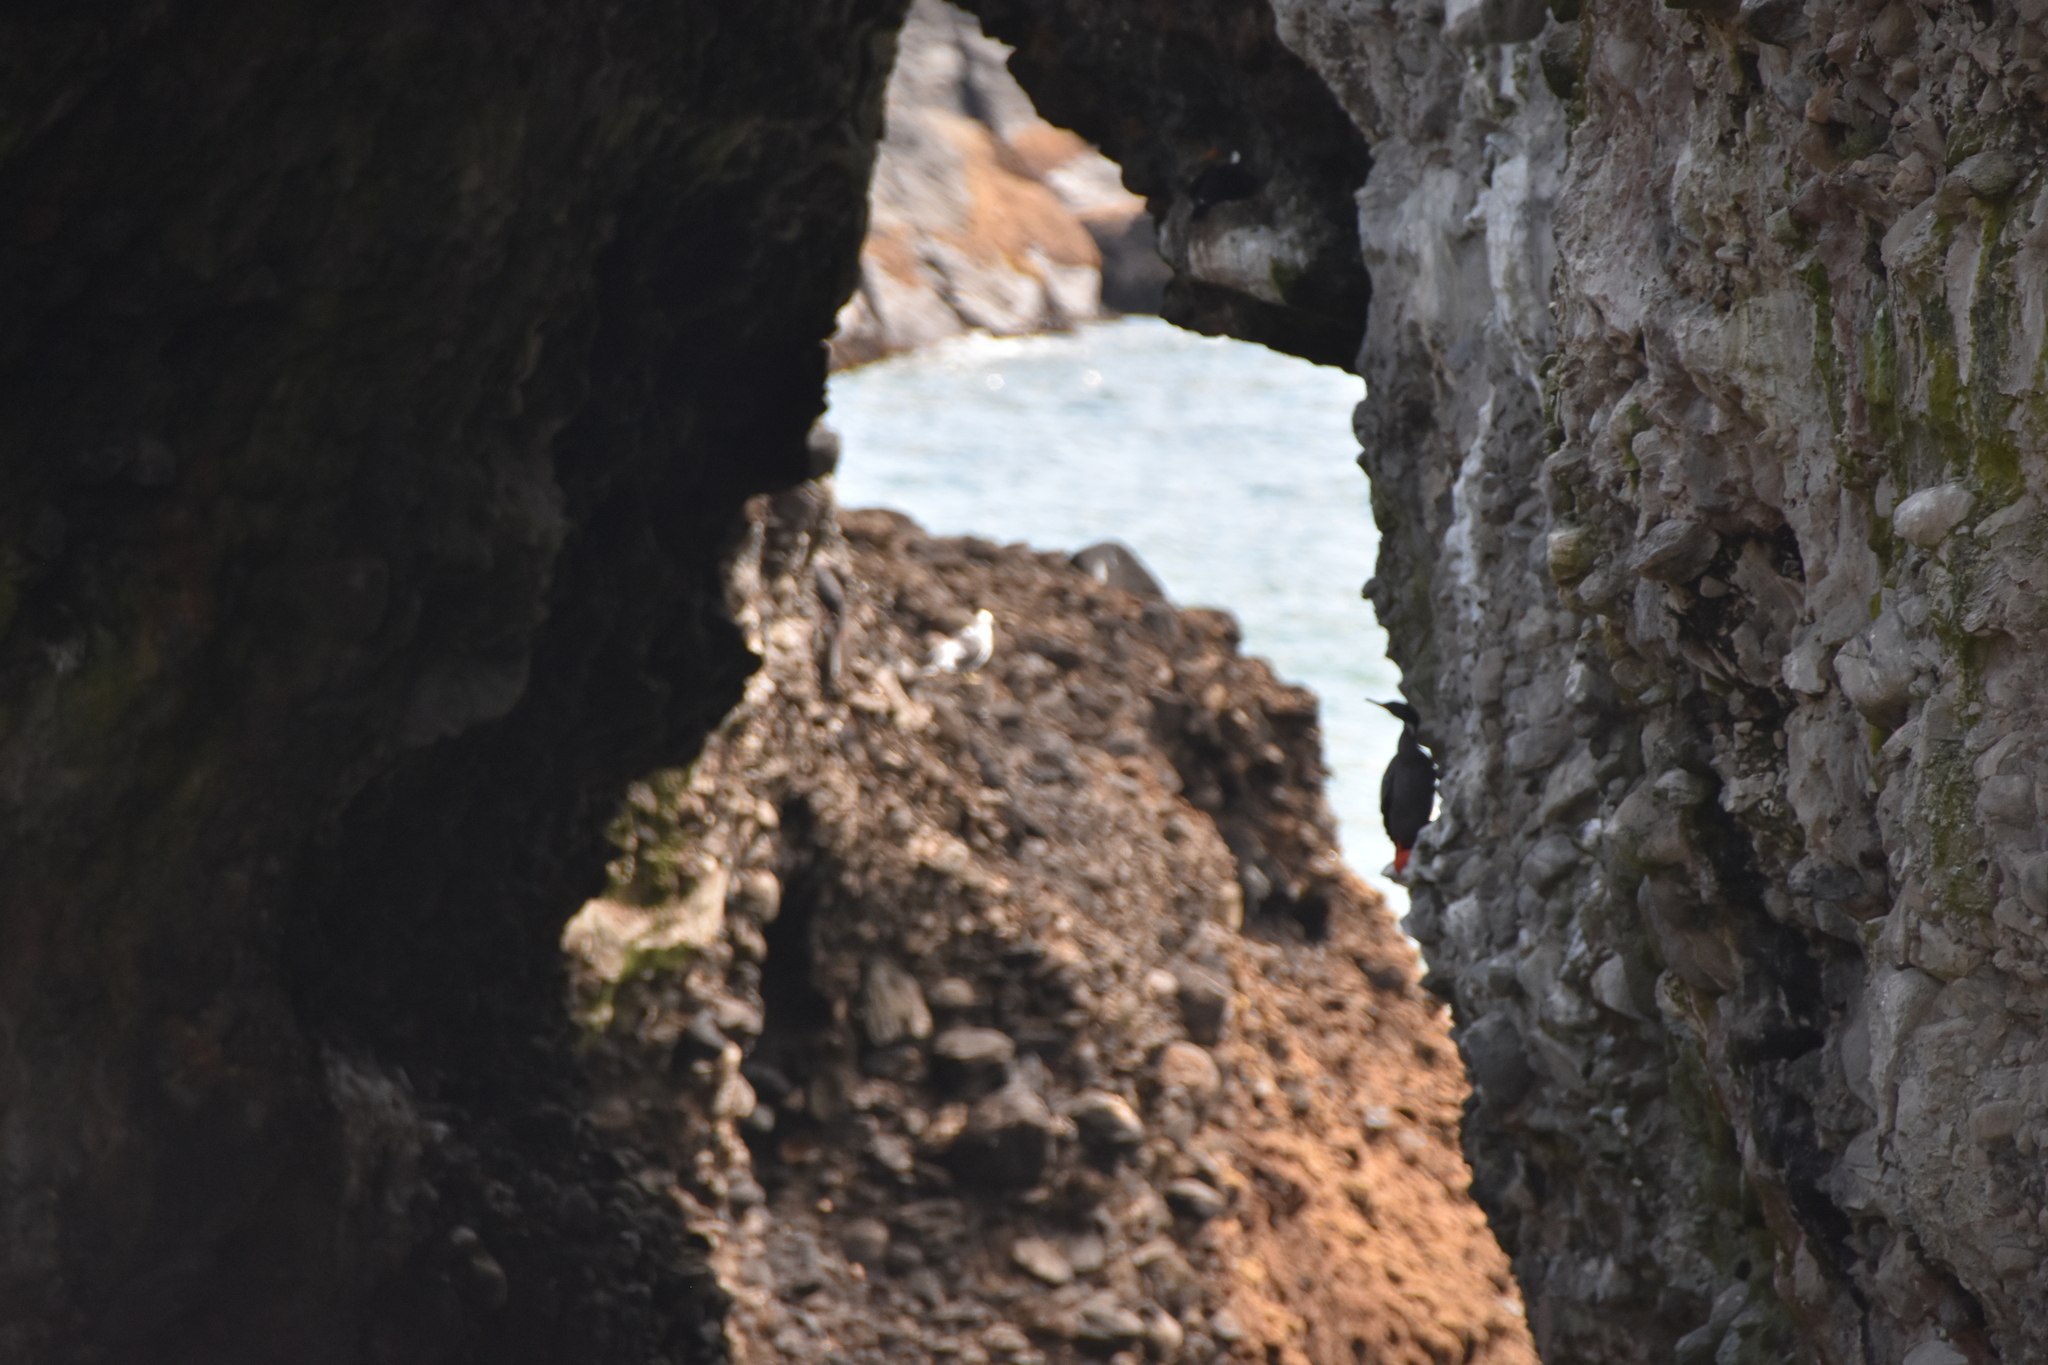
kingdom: Animalia
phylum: Chordata
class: Aves
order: Suliformes
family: Phalacrocoracidae
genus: Phalacrocorax
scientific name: Phalacrocorax gaimardi
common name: Red-legged cormorant
